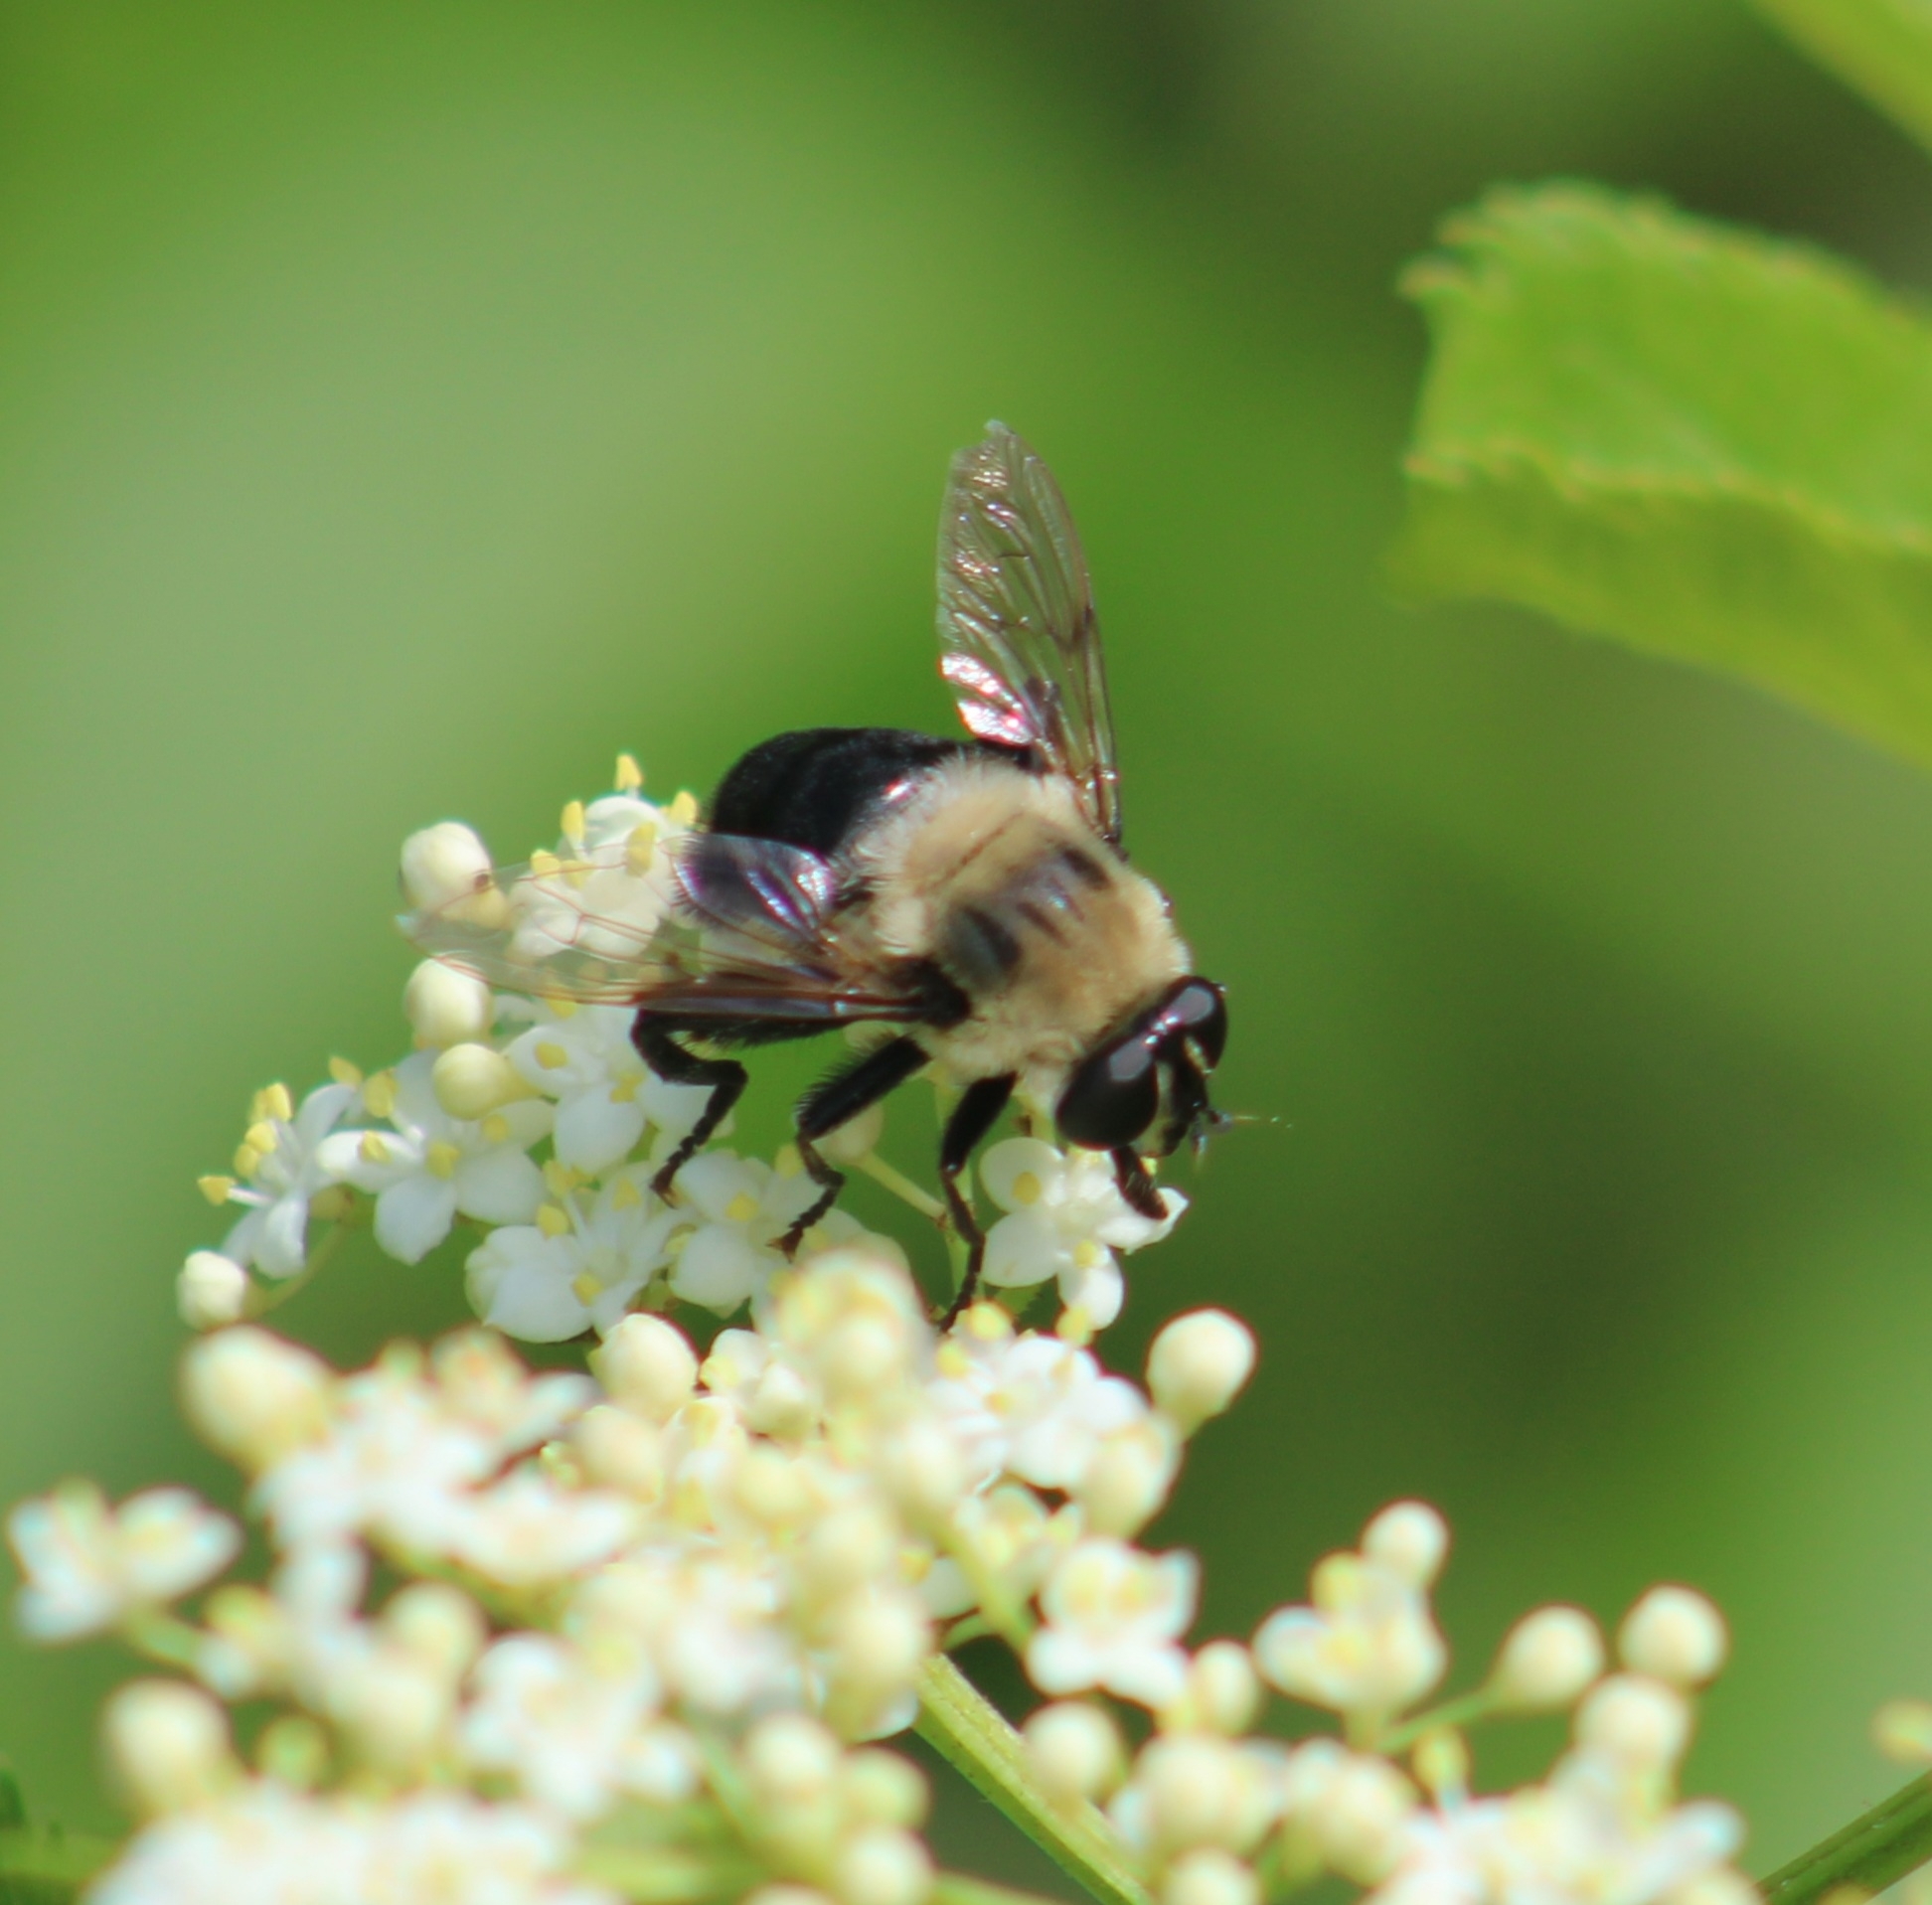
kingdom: Animalia
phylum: Arthropoda
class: Insecta
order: Diptera
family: Syrphidae
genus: Imatisma
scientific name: Imatisma bautias
